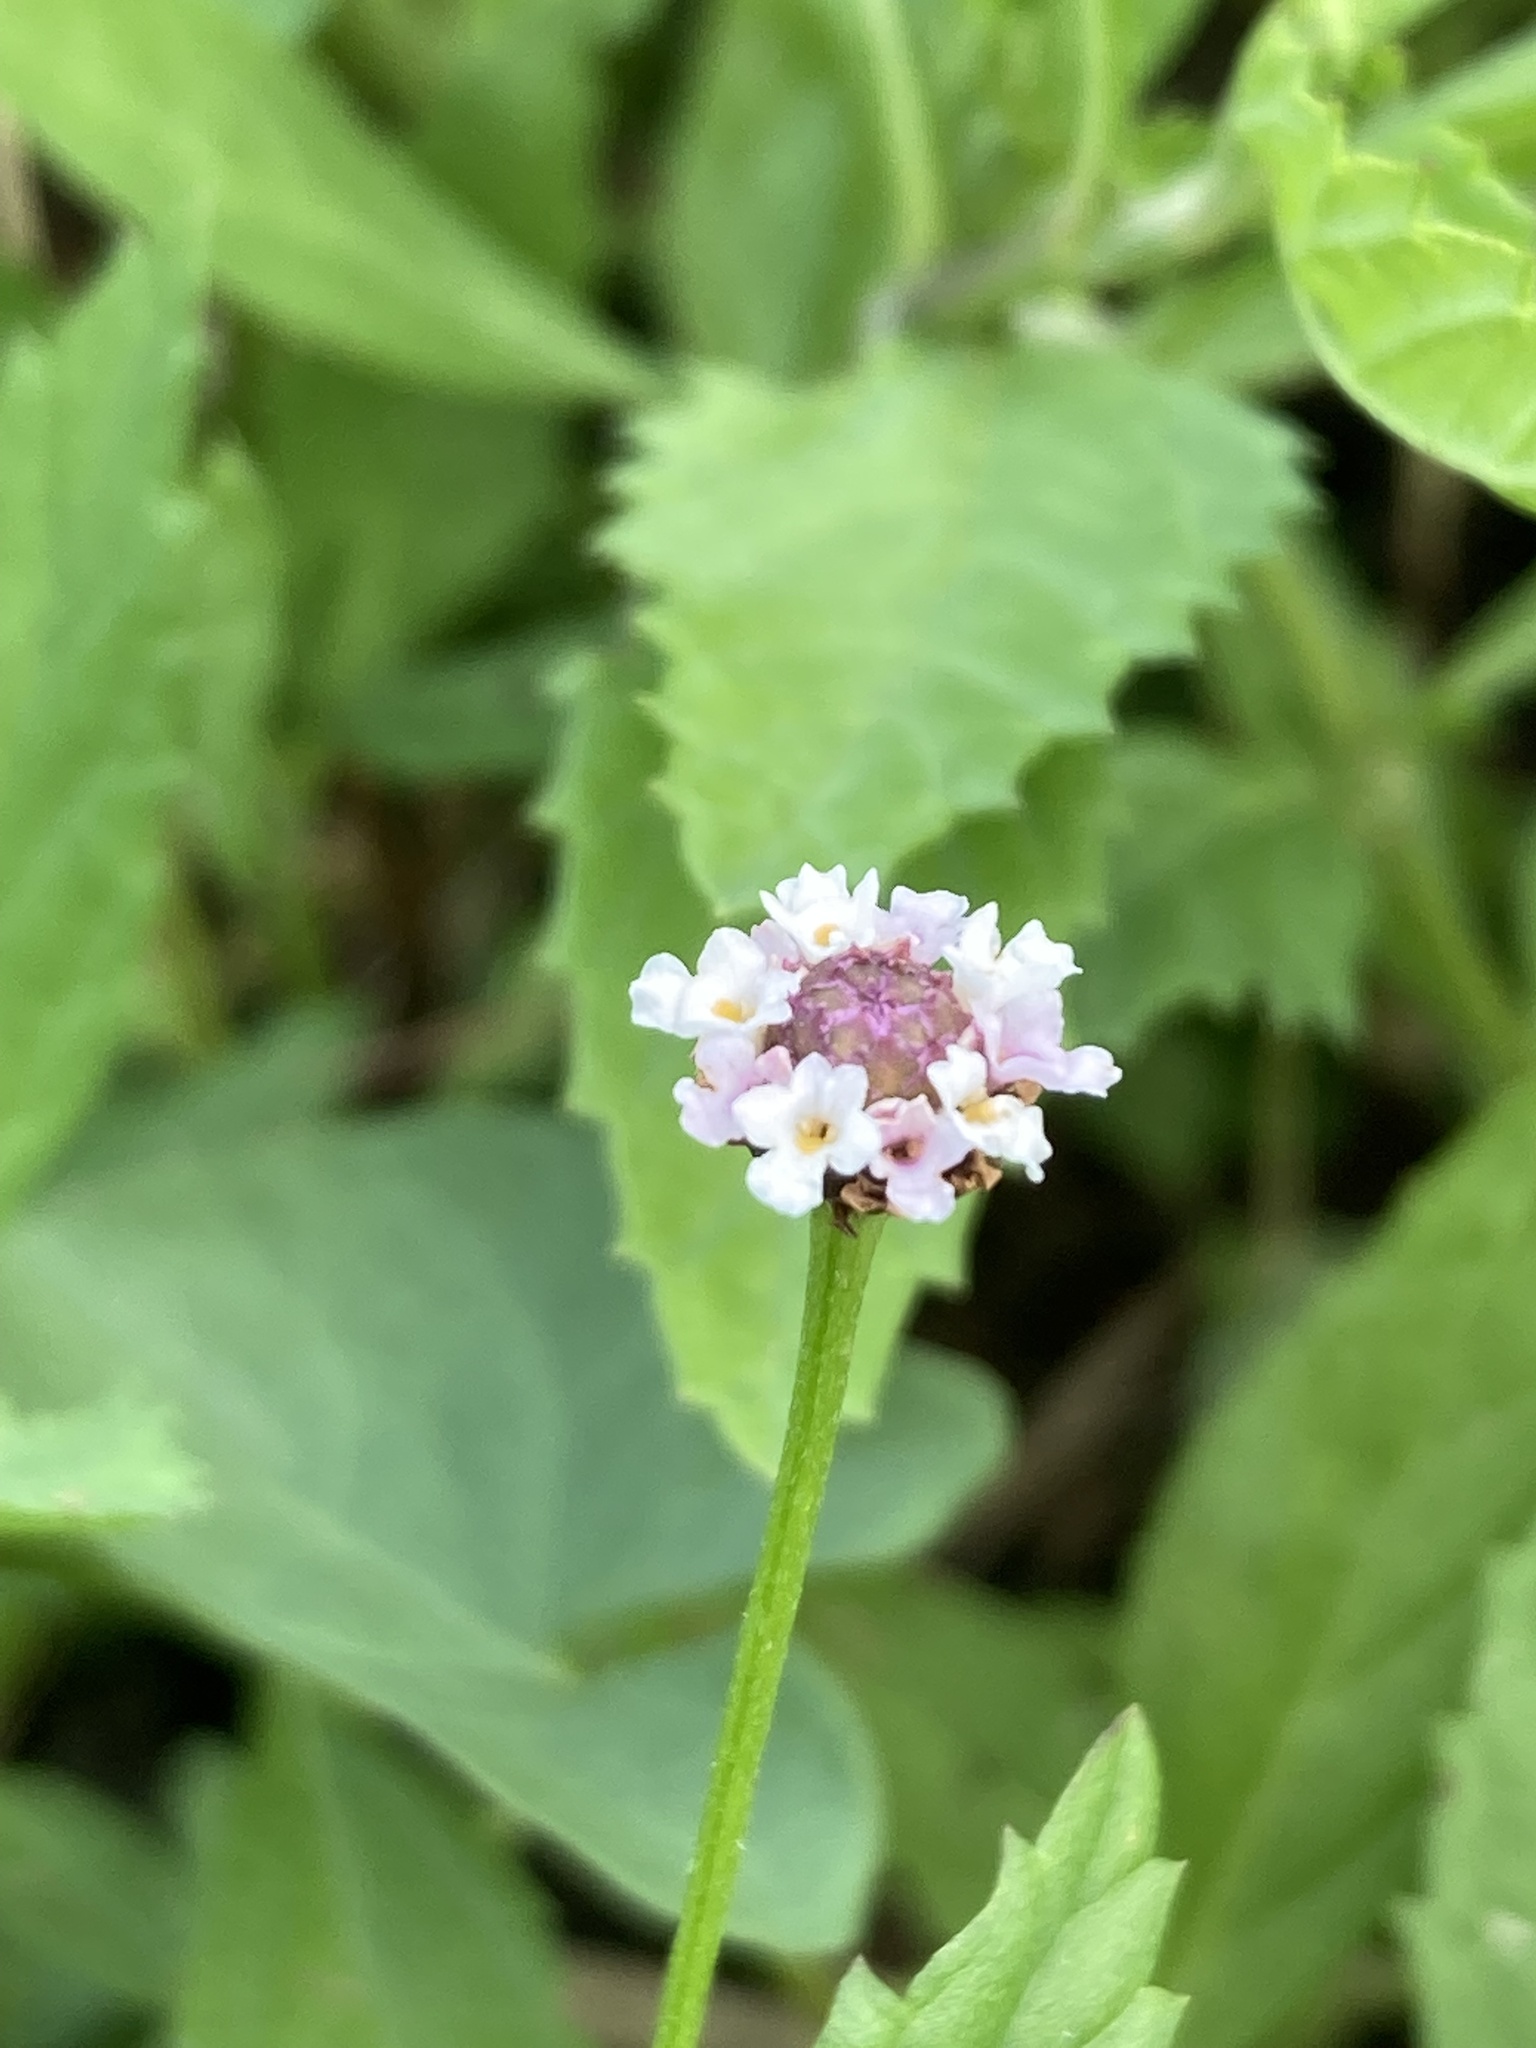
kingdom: Plantae
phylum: Tracheophyta
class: Magnoliopsida
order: Lamiales
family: Verbenaceae
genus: Phyla
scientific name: Phyla lanceolata
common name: Northern fogfruit
